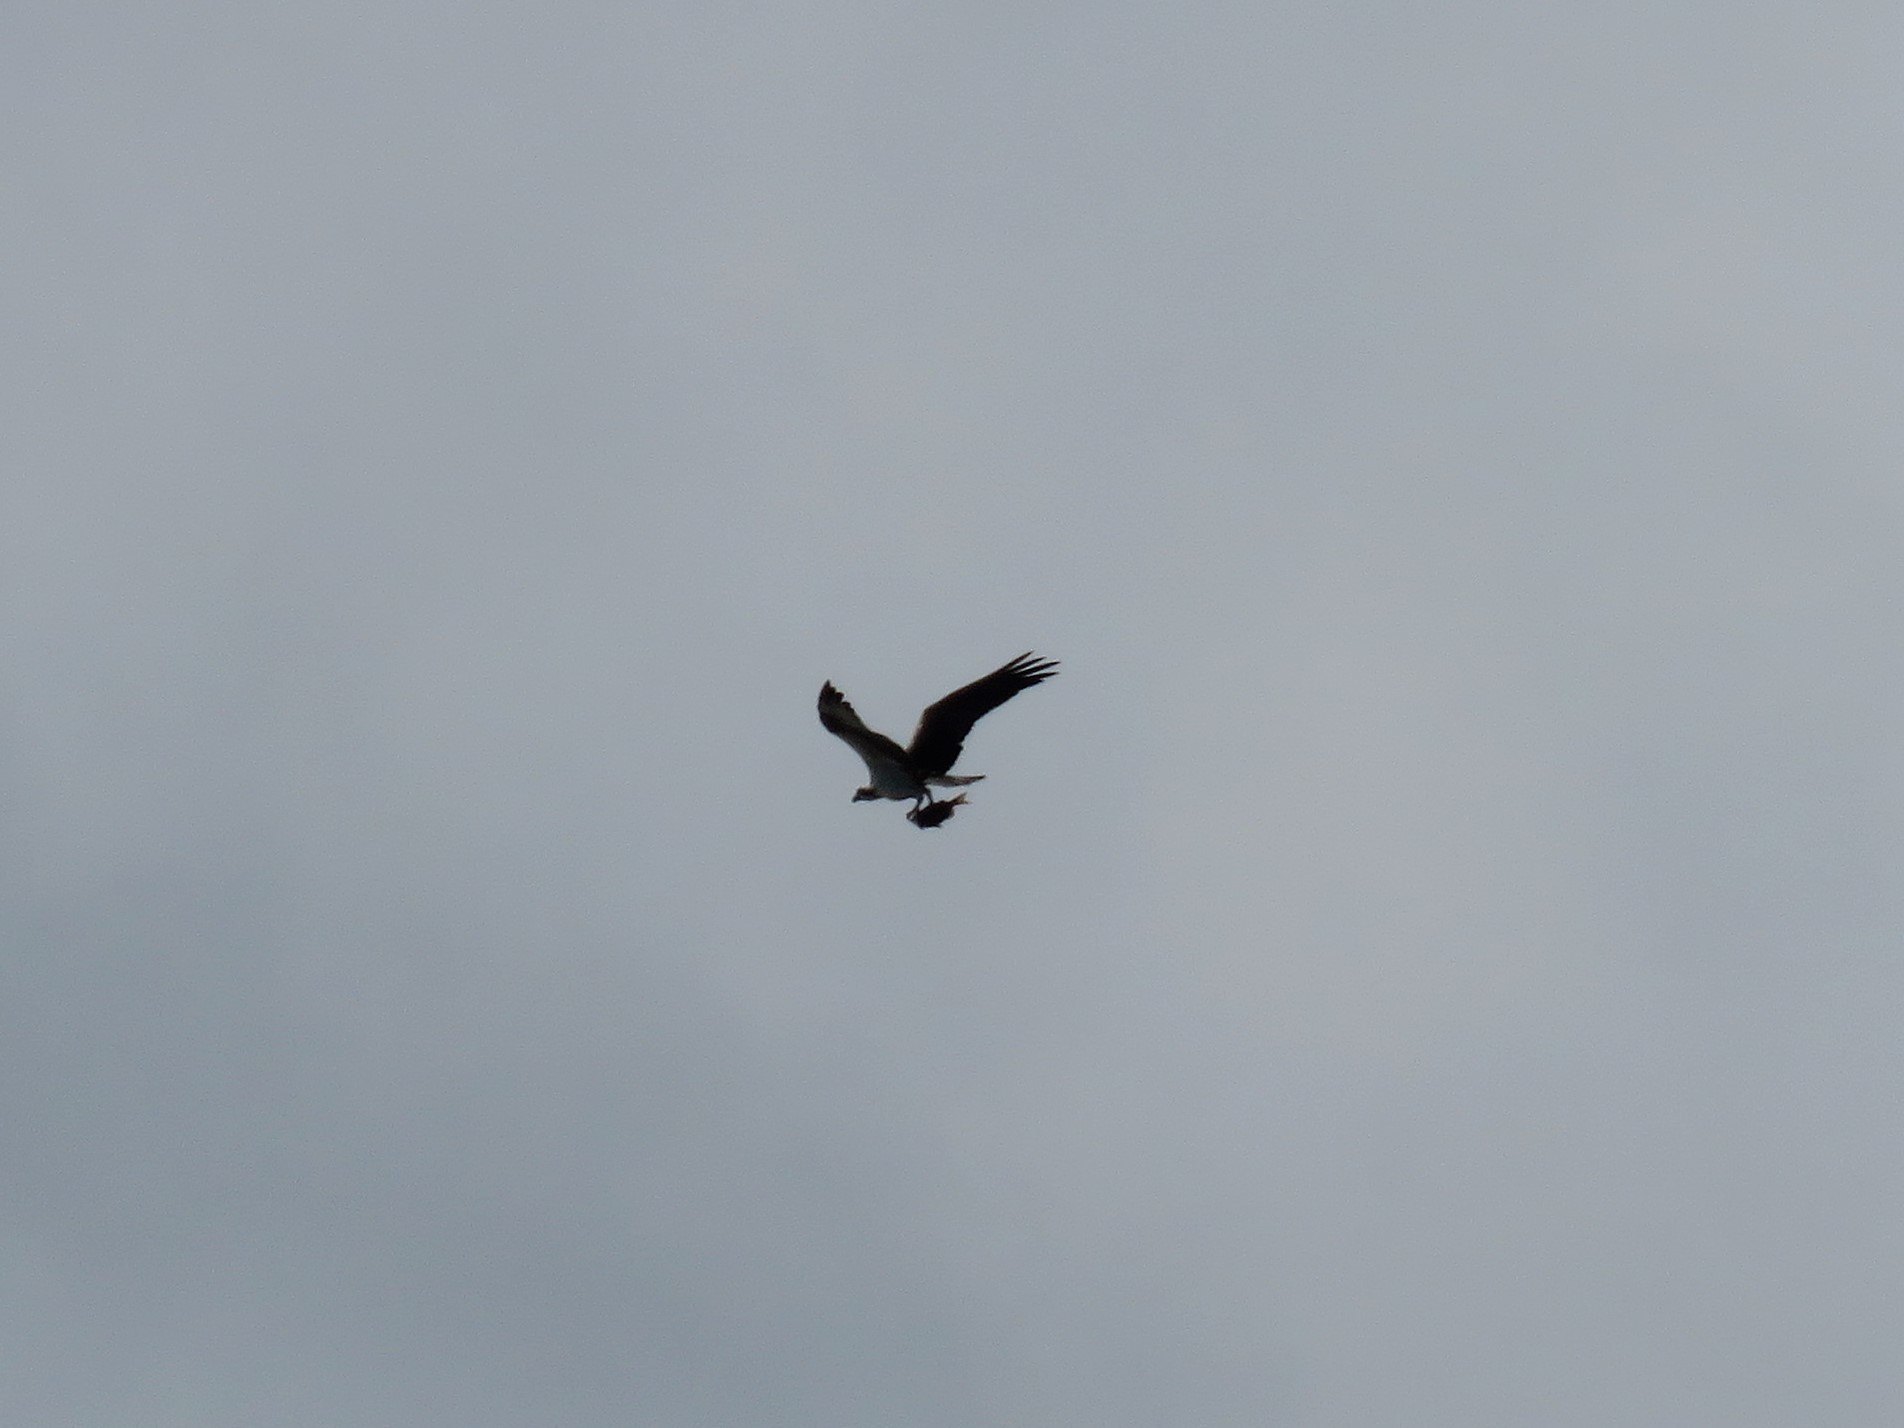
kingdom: Animalia
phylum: Chordata
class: Aves
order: Accipitriformes
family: Pandionidae
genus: Pandion
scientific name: Pandion haliaetus
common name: Osprey
